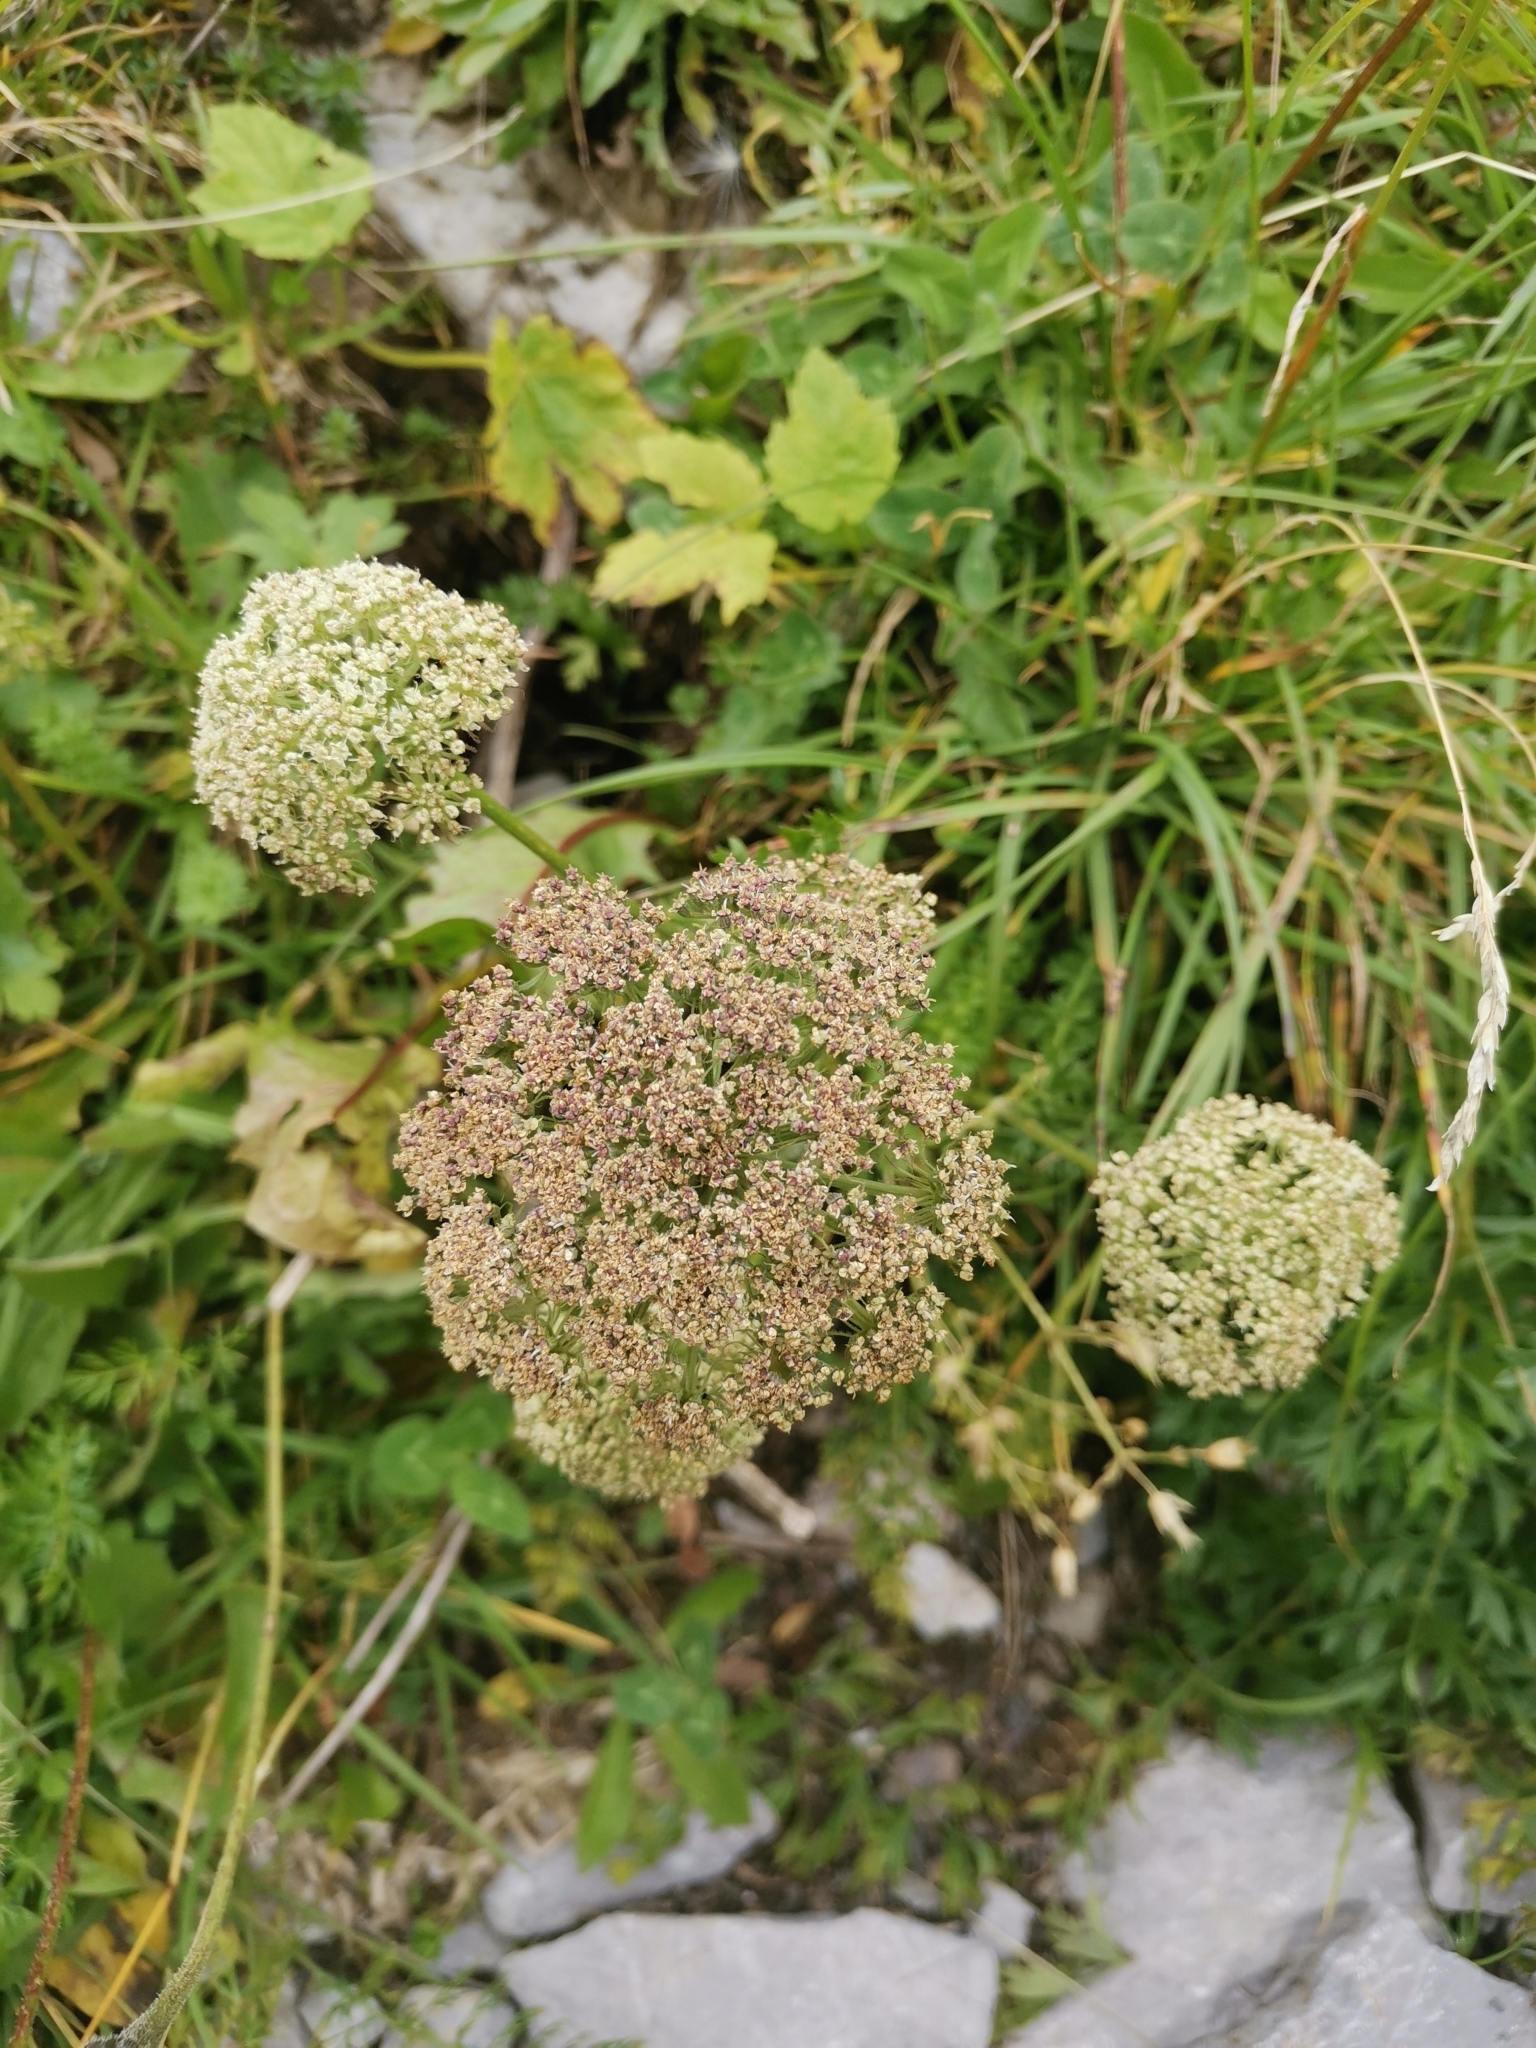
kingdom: Plantae
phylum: Tracheophyta
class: Magnoliopsida
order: Apiales
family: Apiaceae
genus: Seseli
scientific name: Seseli libanotis
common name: Mooncarrot
